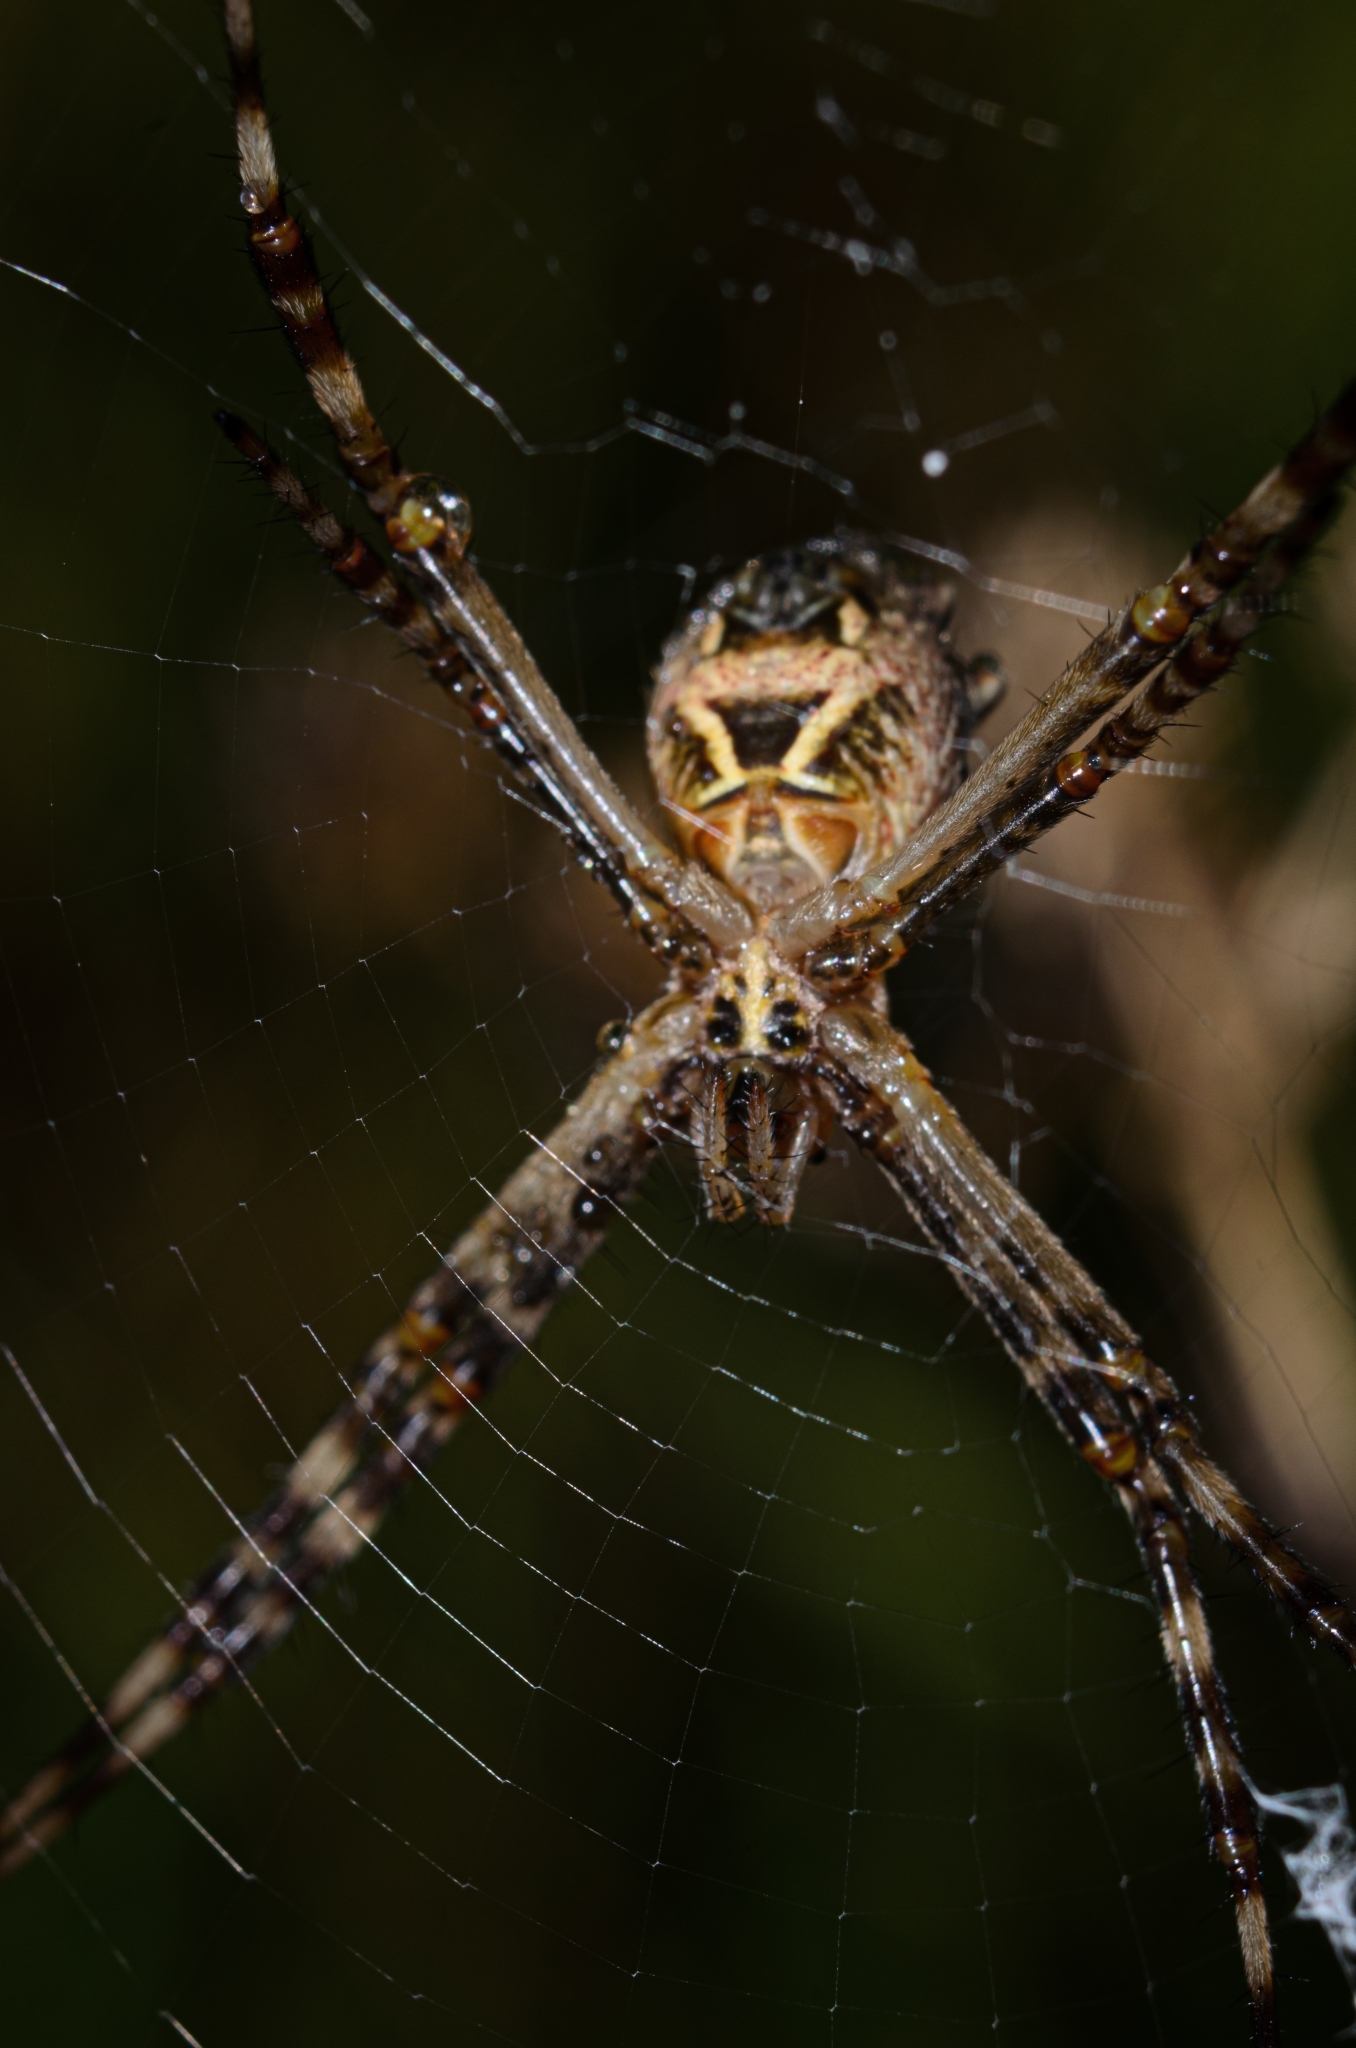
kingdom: Animalia
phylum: Arthropoda
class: Arachnida
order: Araneae
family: Araneidae
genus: Argiope
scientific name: Argiope argentata
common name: Orb weavers
